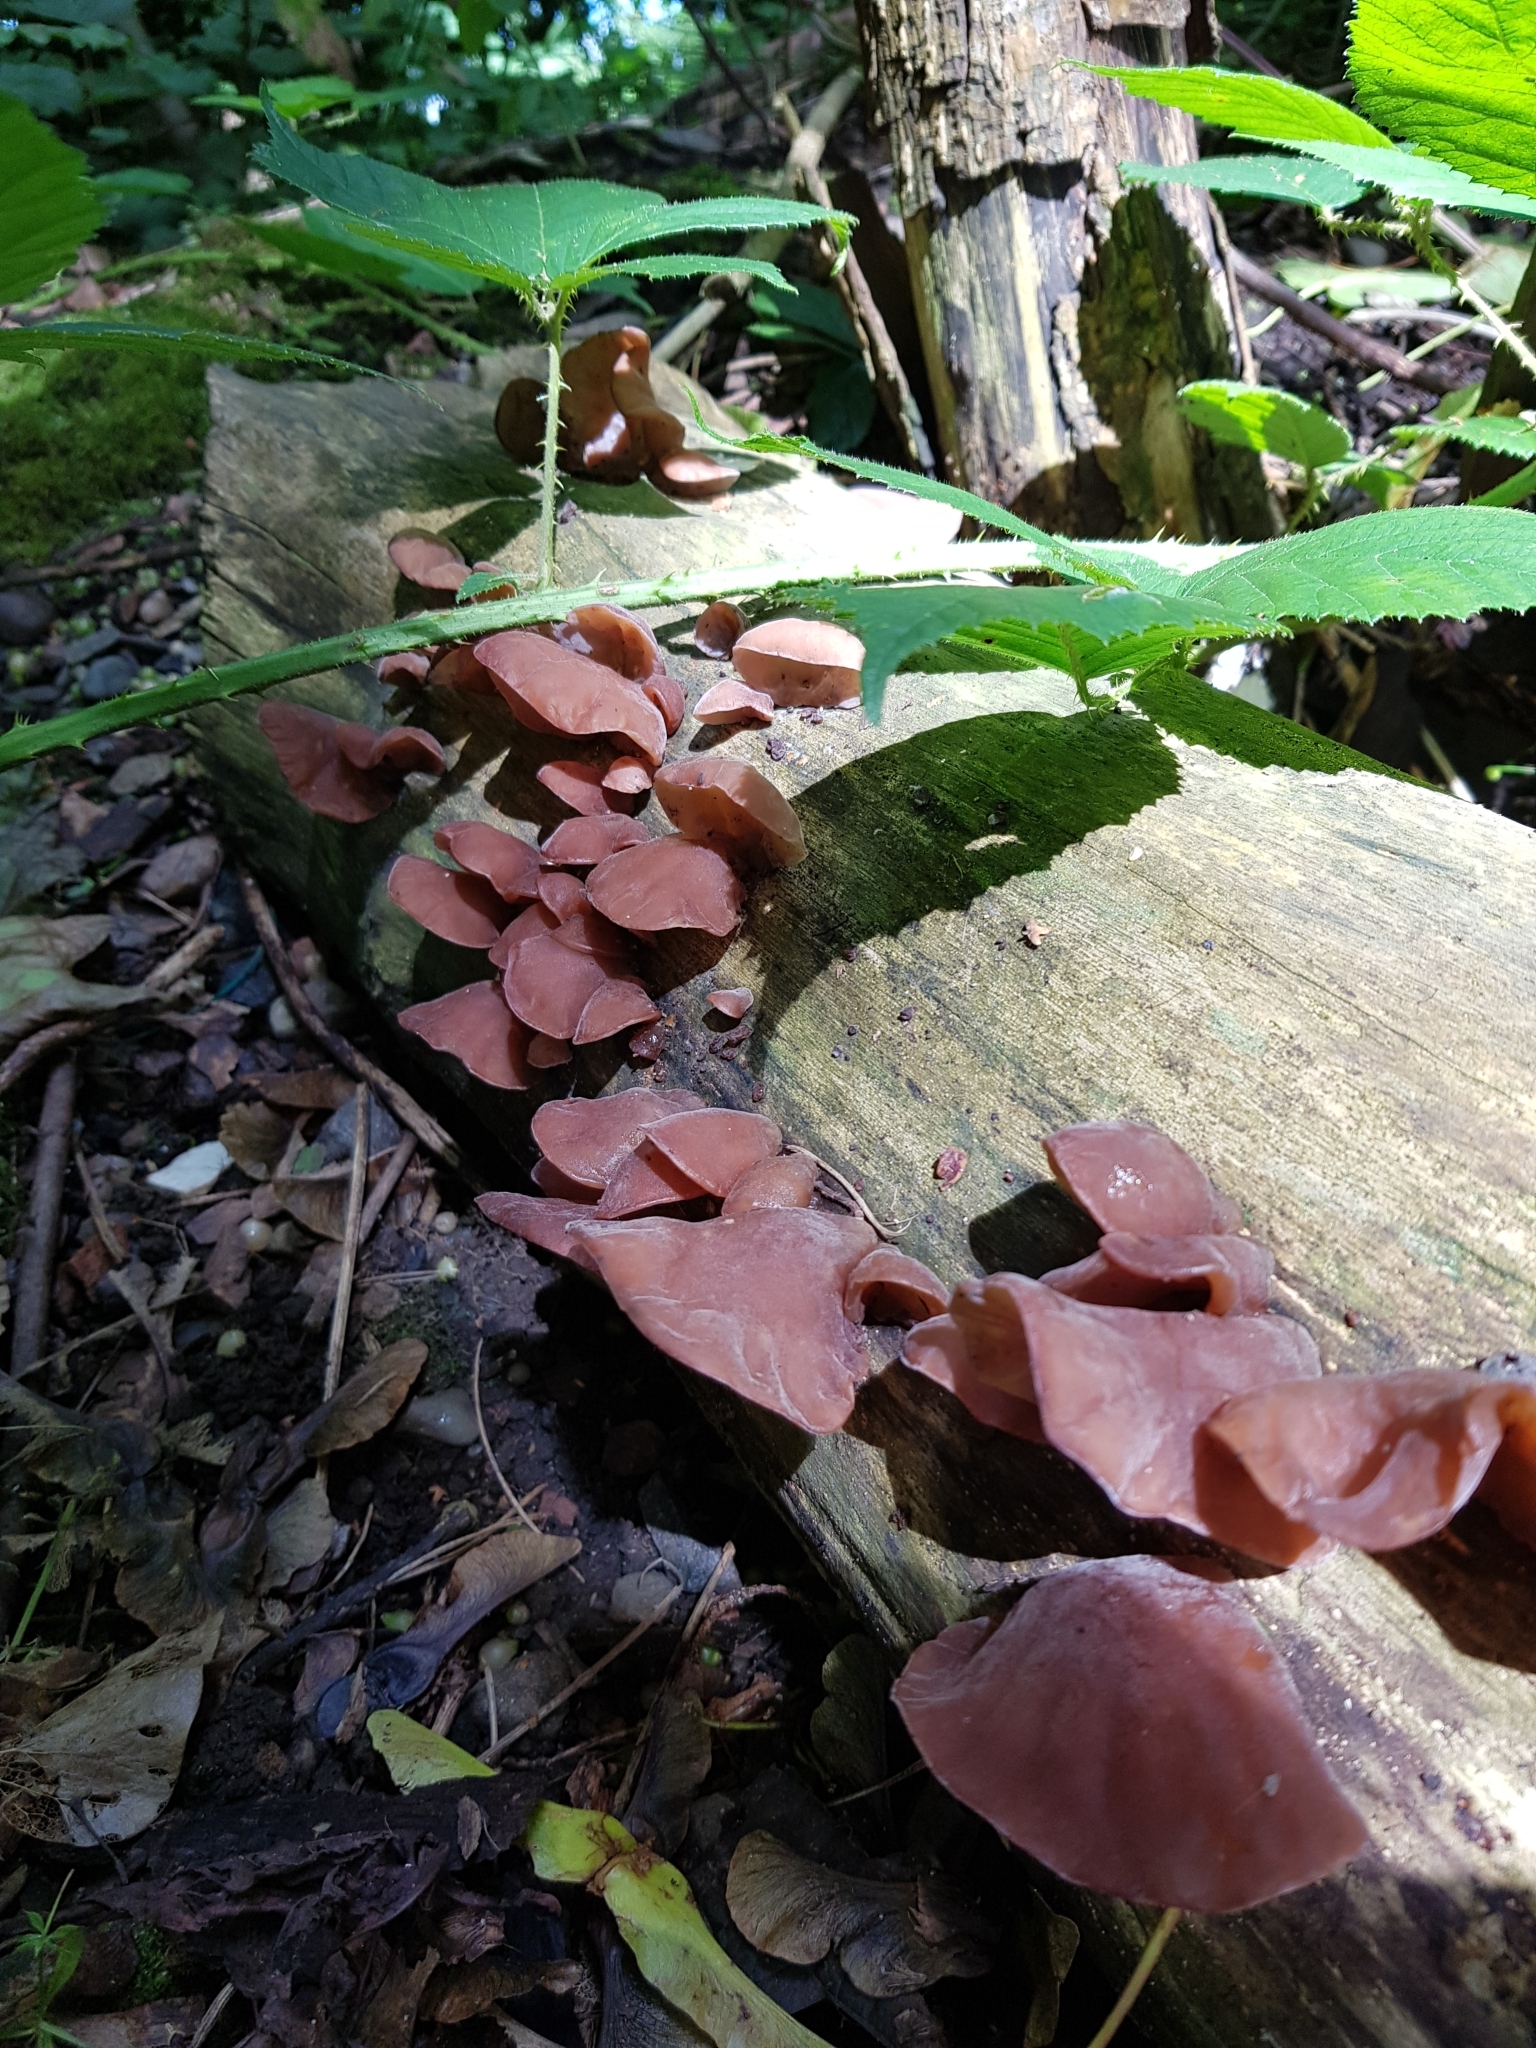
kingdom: Fungi
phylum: Basidiomycota
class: Agaricomycetes
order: Auriculariales
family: Auriculariaceae
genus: Auricularia
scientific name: Auricularia auricula-judae
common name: Jelly ear
